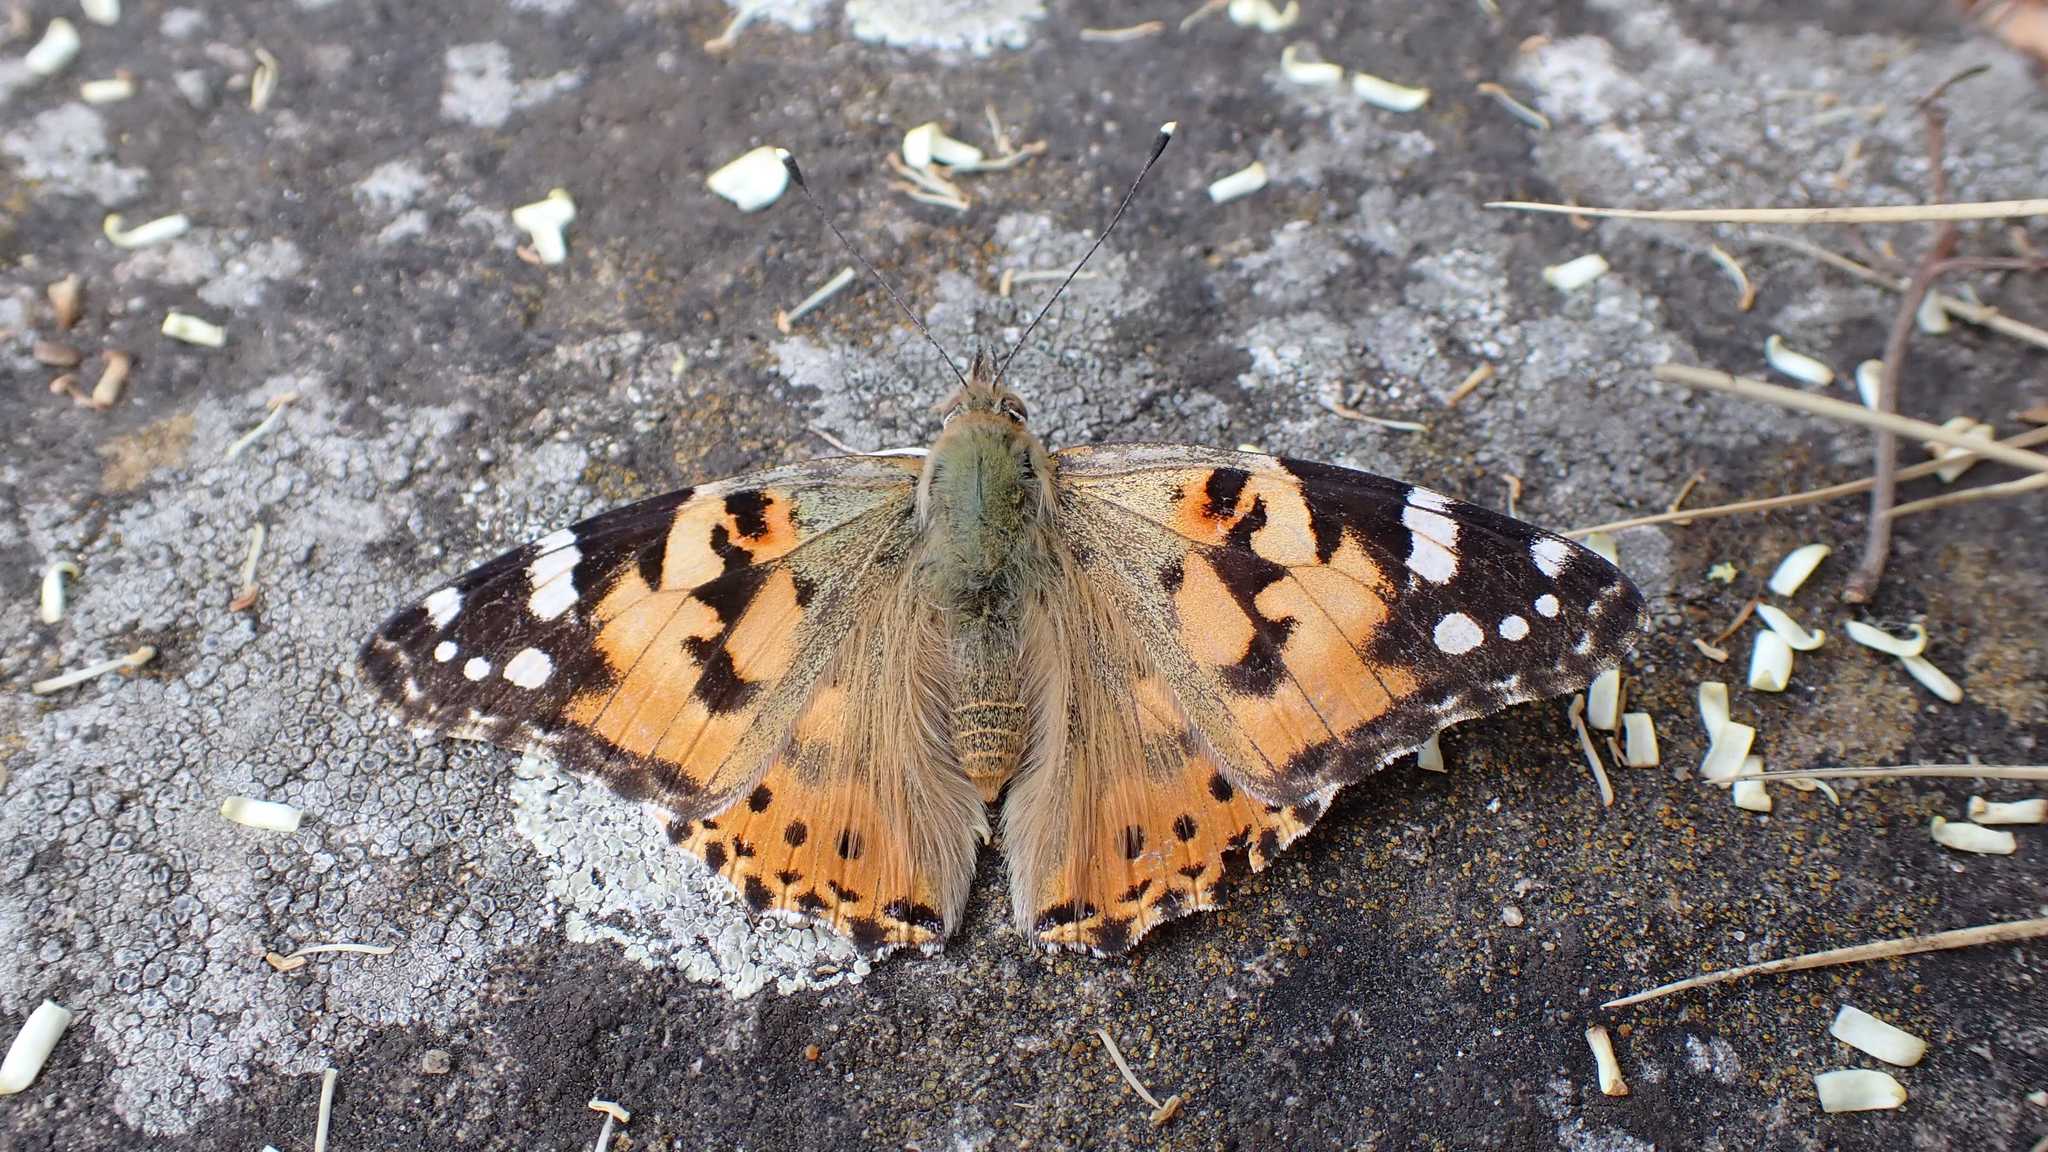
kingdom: Animalia
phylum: Arthropoda
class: Insecta
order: Lepidoptera
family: Nymphalidae
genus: Vanessa
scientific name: Vanessa cardui
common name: Painted lady
